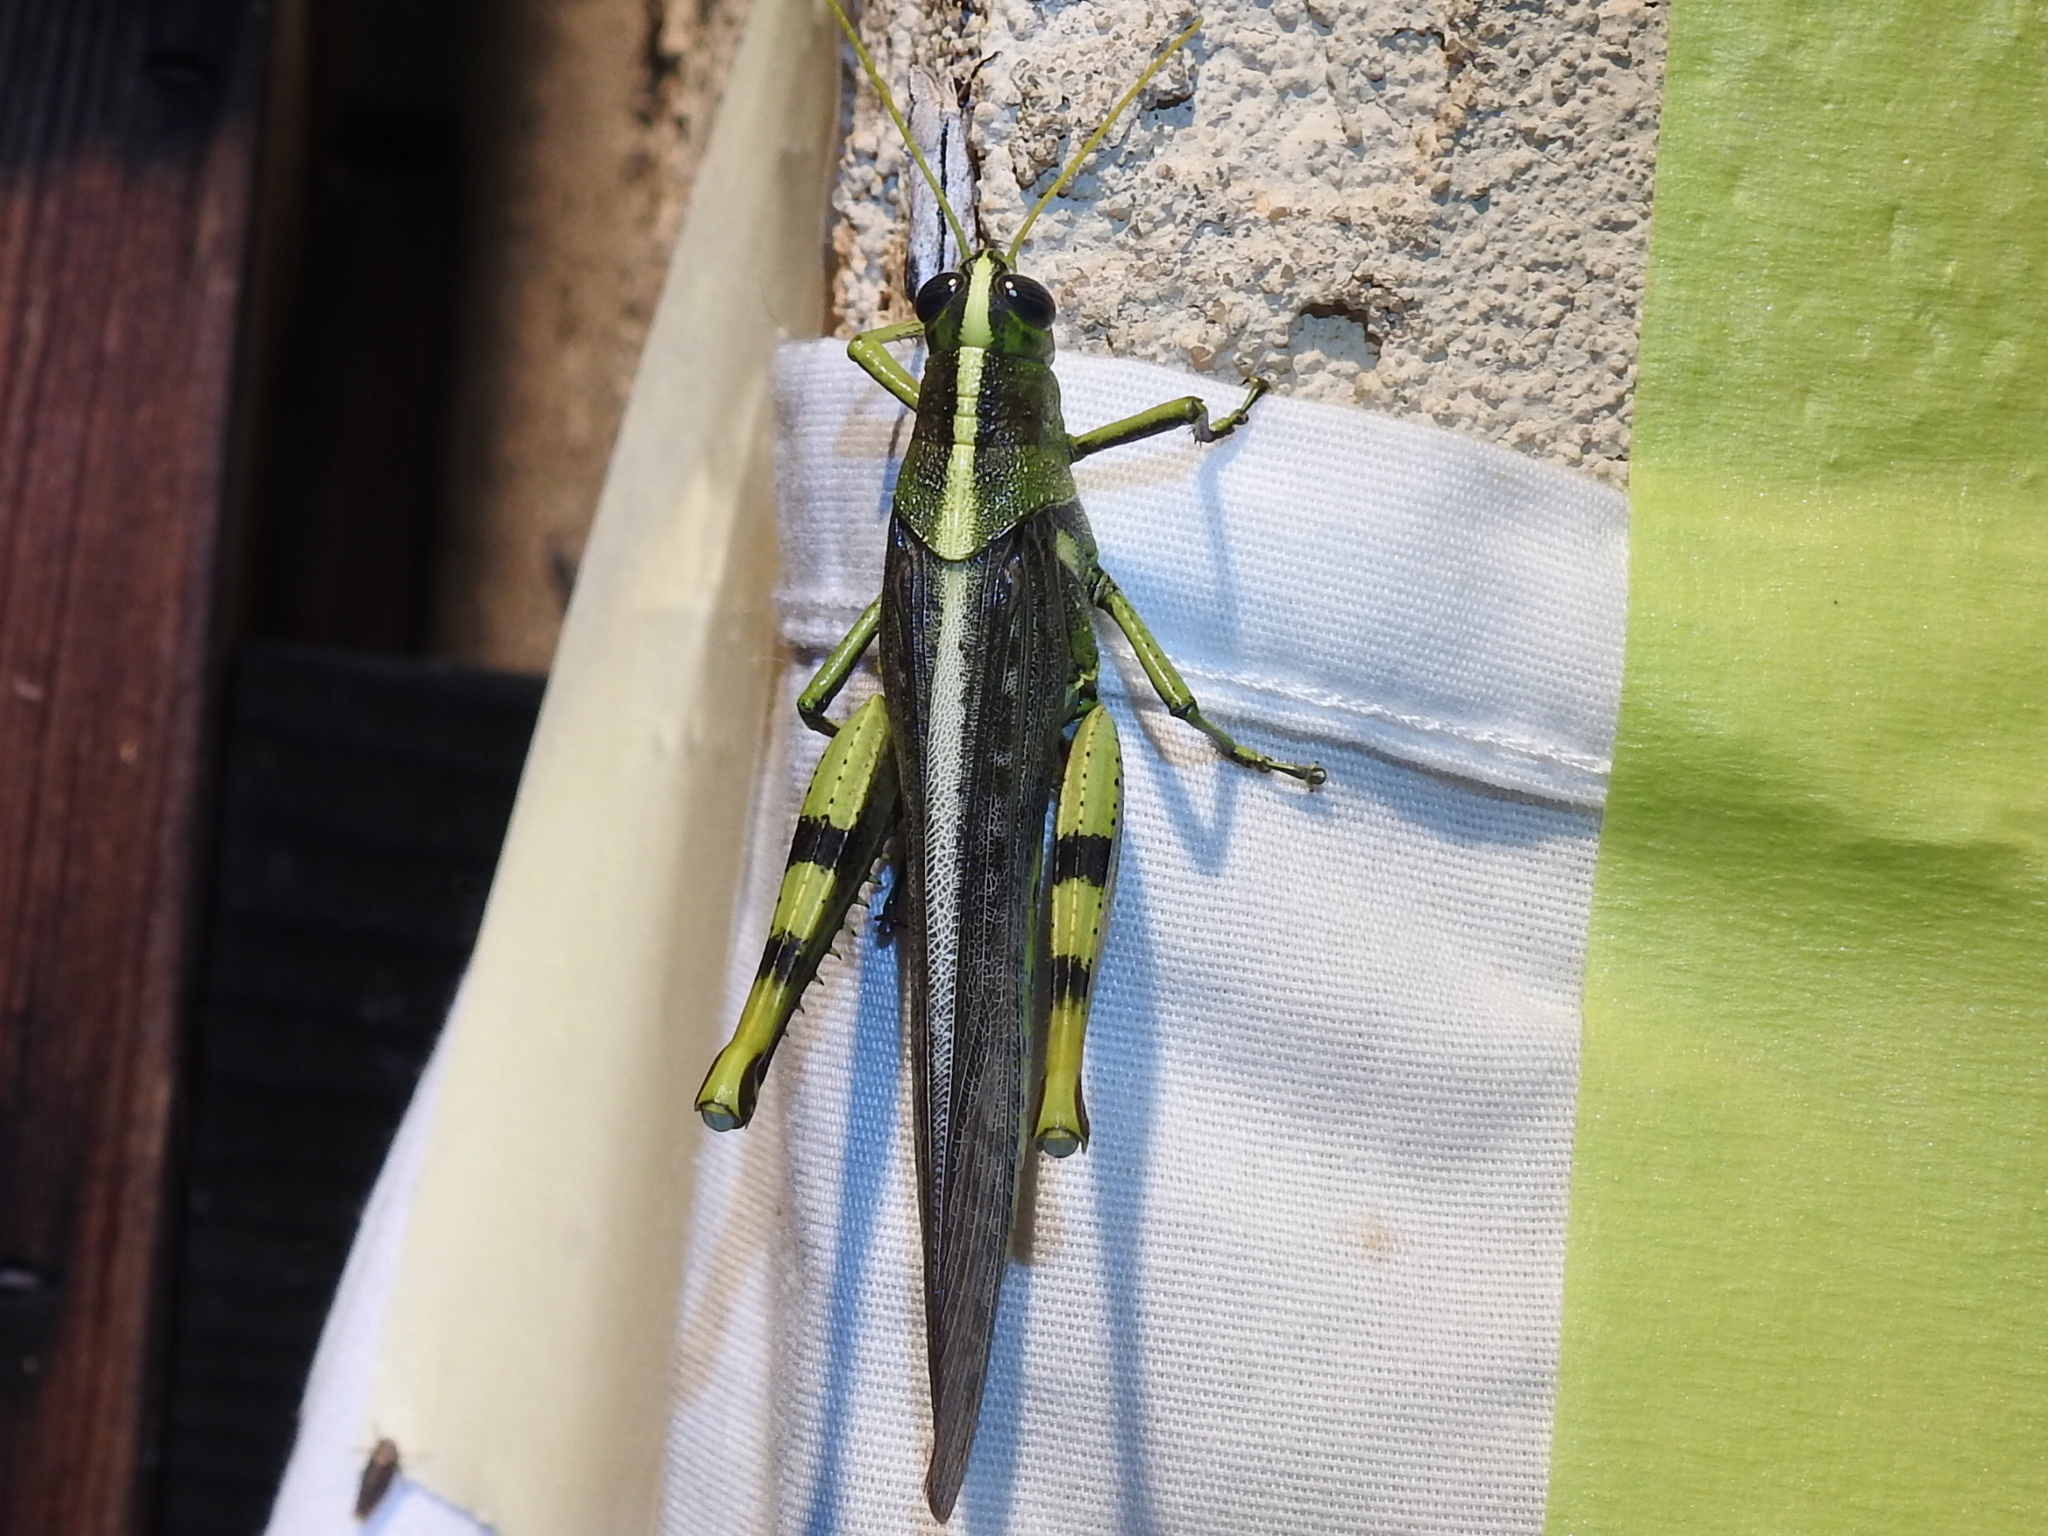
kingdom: Animalia
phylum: Arthropoda
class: Insecta
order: Orthoptera
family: Acrididae
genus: Schistocerca
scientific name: Schistocerca obscura
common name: Obscure bird grasshopper
